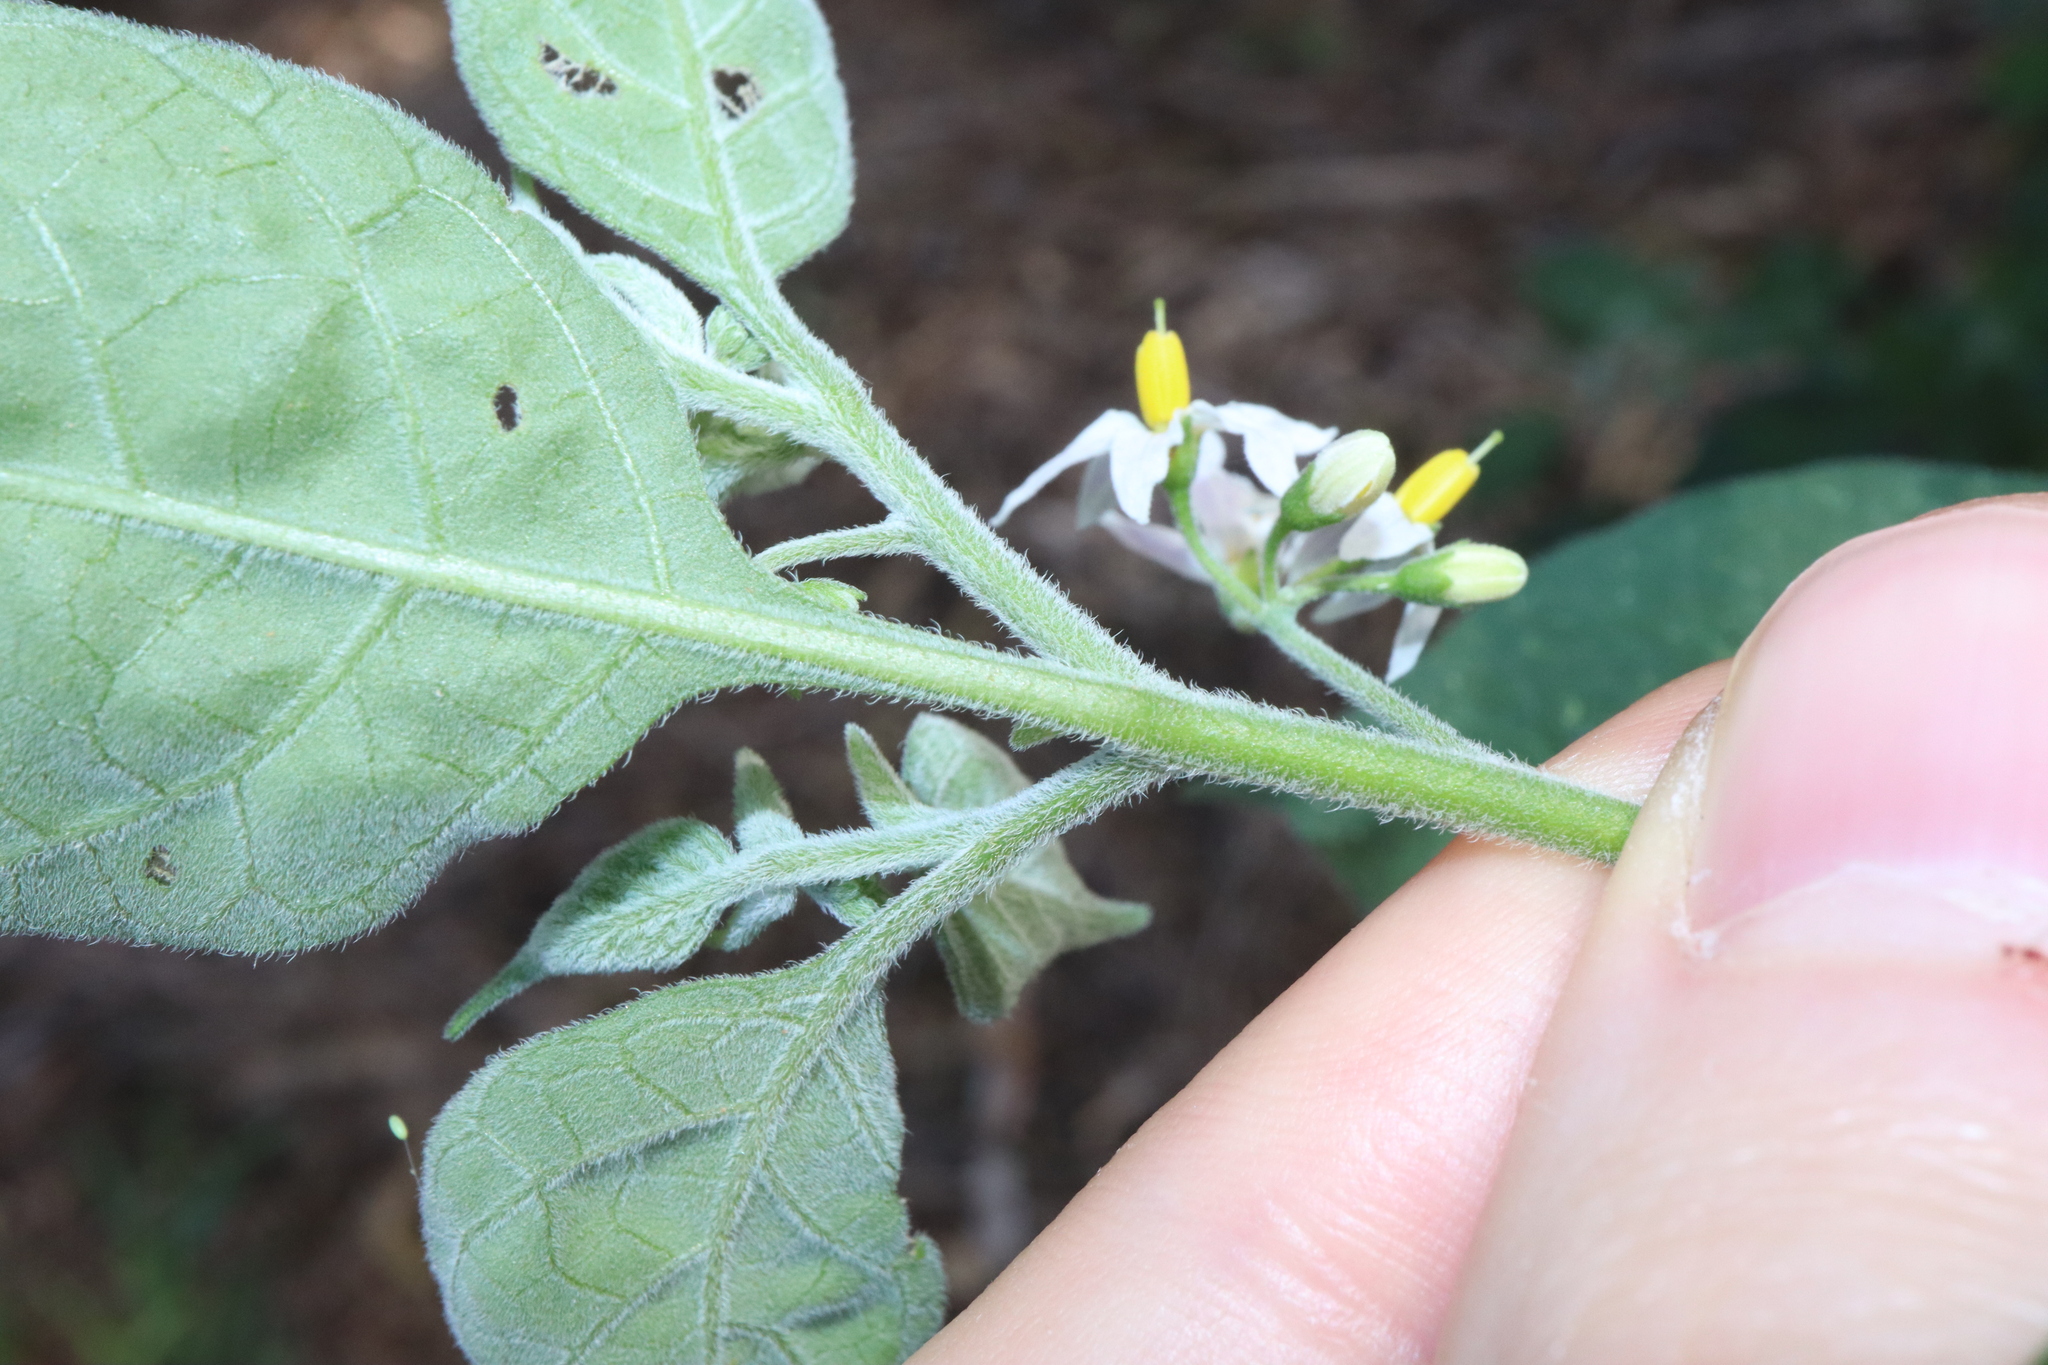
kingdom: Plantae
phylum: Tracheophyta
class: Magnoliopsida
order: Solanales
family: Solanaceae
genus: Solanum
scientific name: Solanum chenopodioides
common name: Tall nightshade
